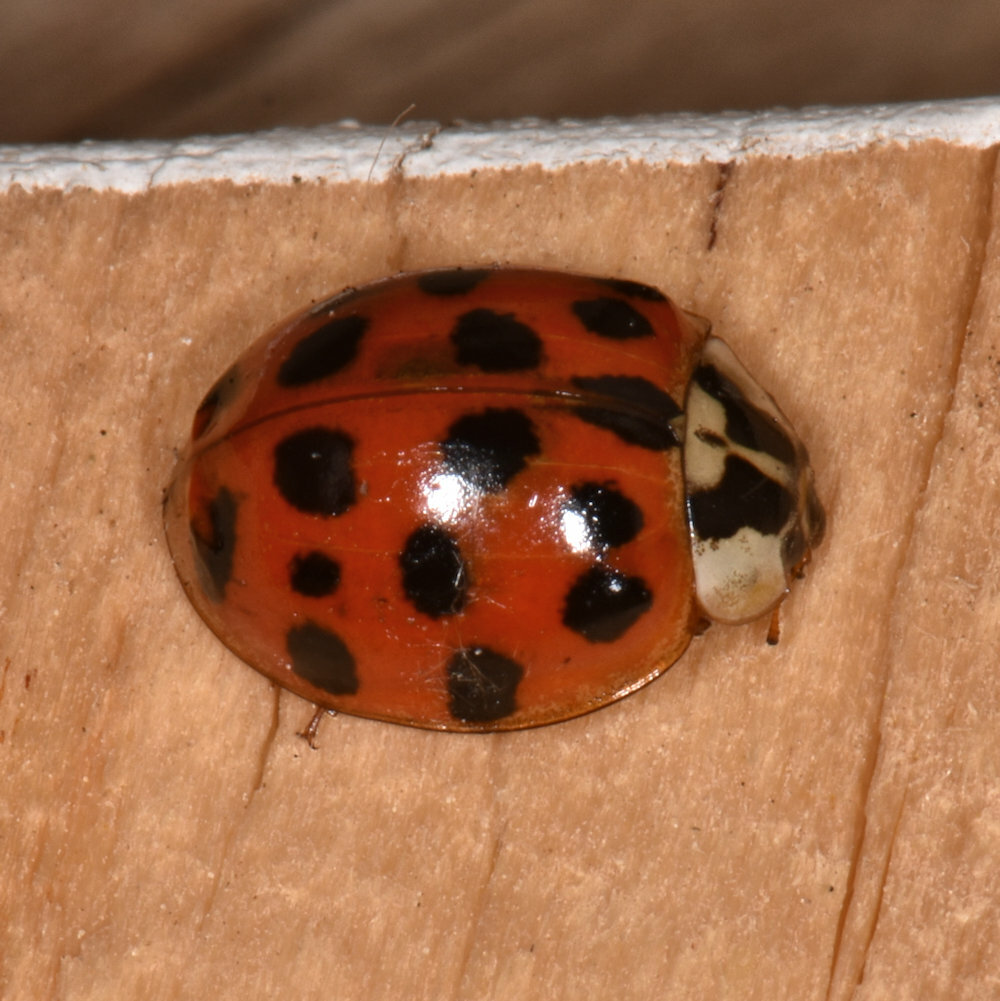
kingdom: Animalia
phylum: Arthropoda
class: Insecta
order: Coleoptera
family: Coccinellidae
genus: Harmonia
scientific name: Harmonia axyridis
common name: Harlequin ladybird
